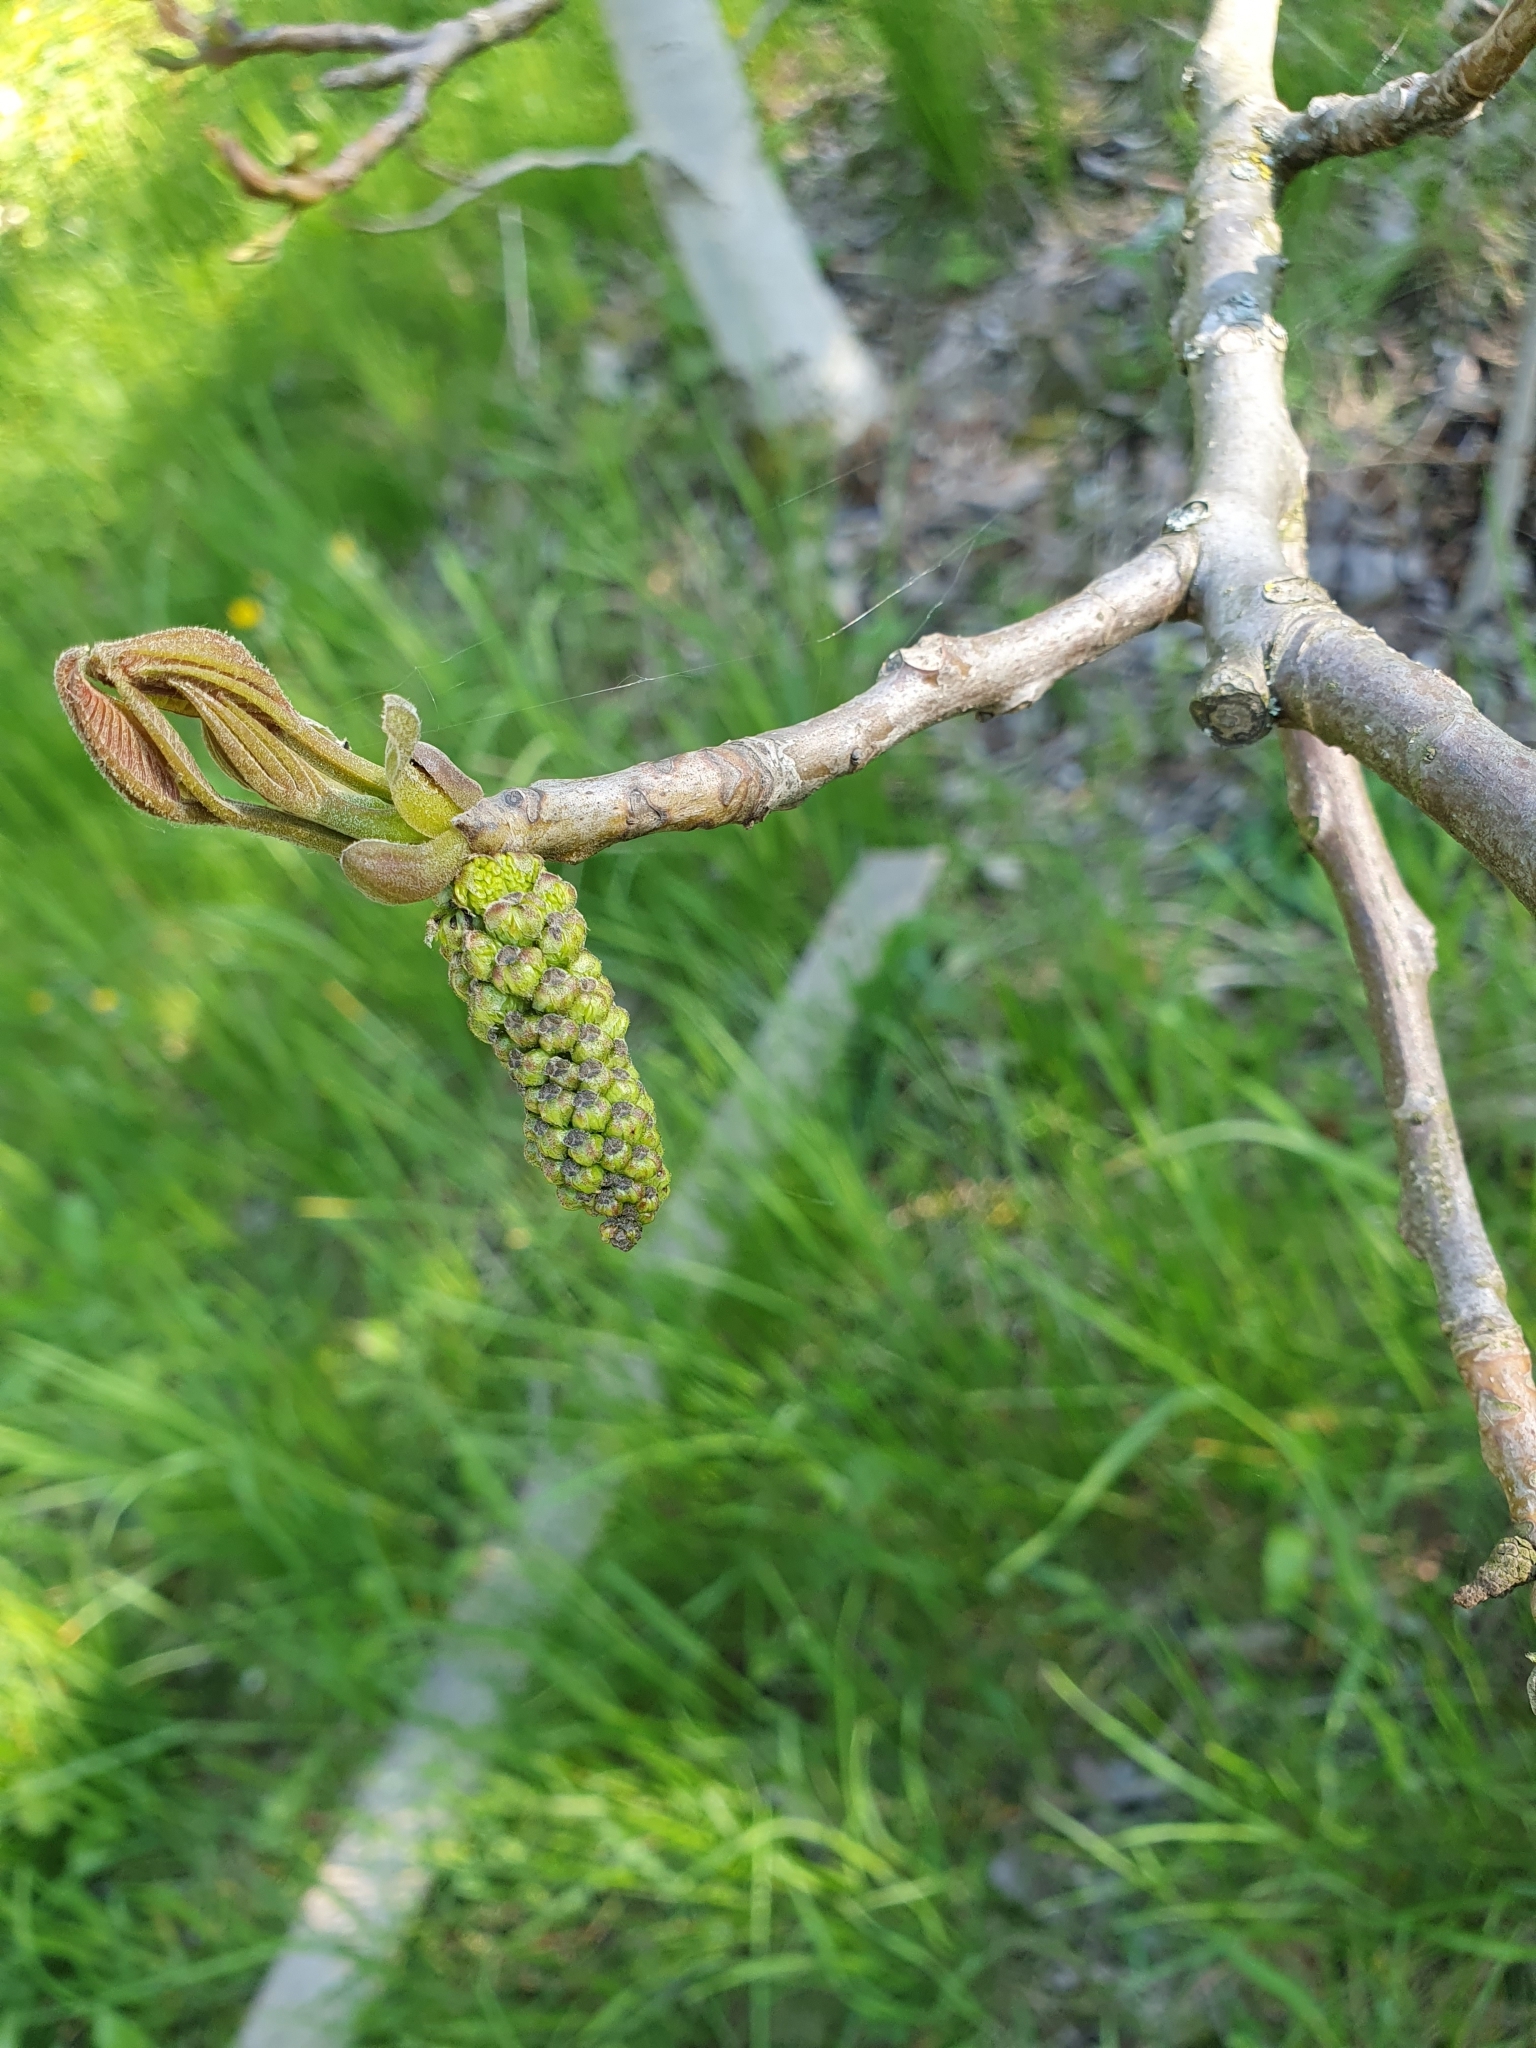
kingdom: Plantae
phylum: Tracheophyta
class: Magnoliopsida
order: Fagales
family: Juglandaceae
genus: Juglans
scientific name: Juglans regia
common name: Walnut
